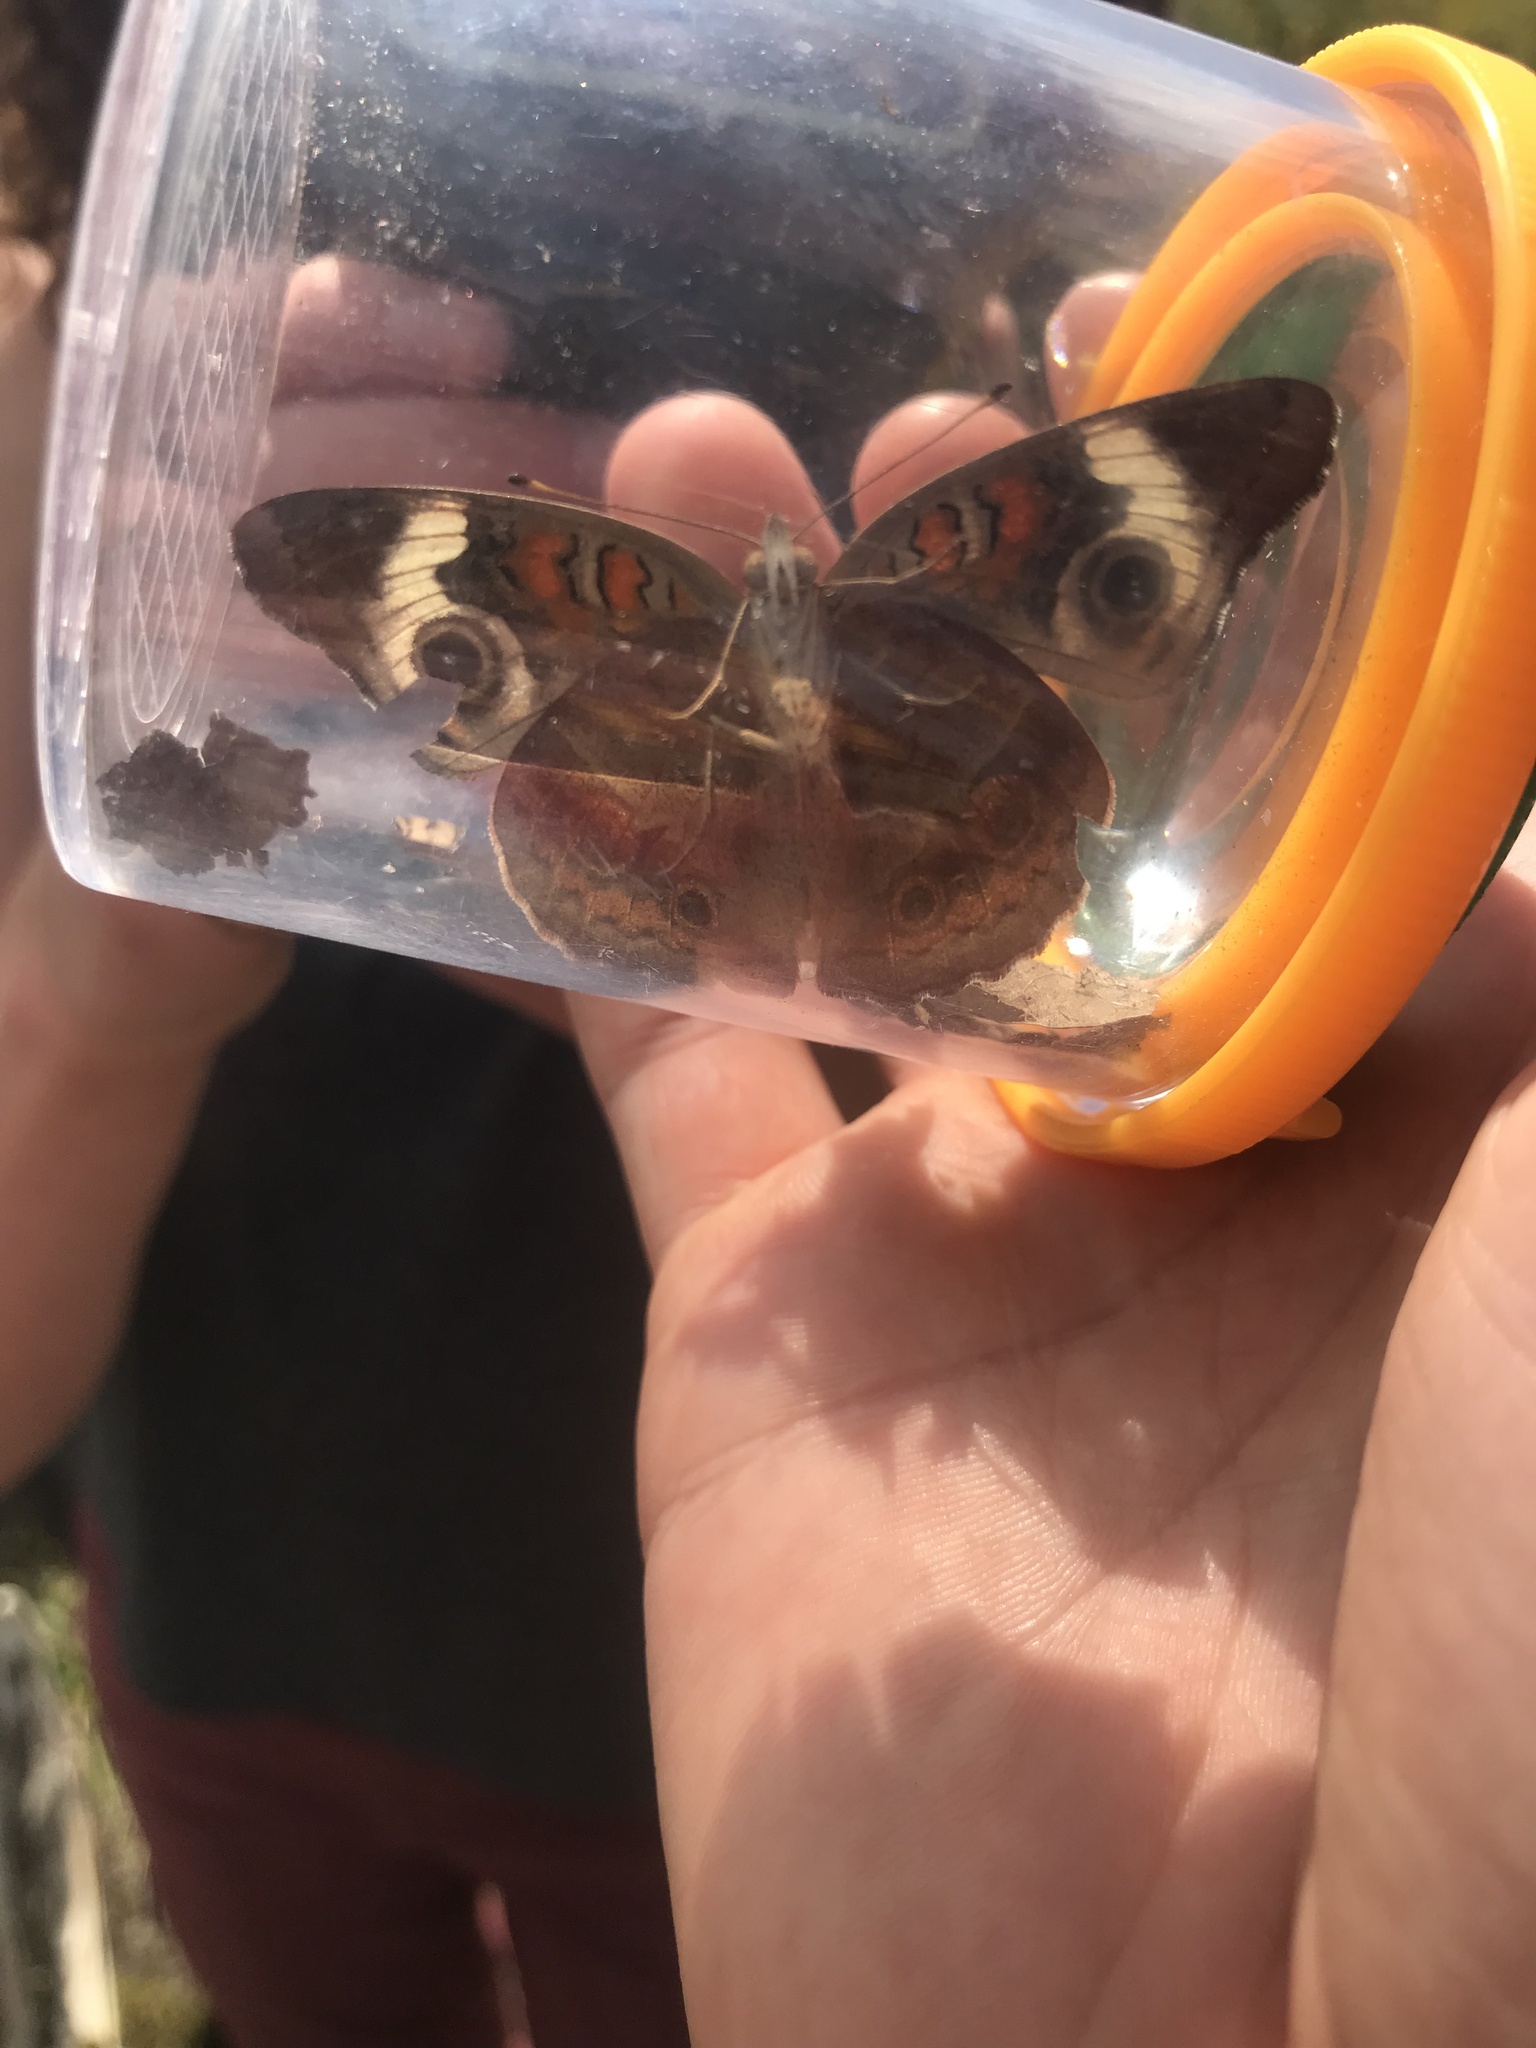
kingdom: Animalia
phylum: Arthropoda
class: Insecta
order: Lepidoptera
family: Nymphalidae
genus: Junonia
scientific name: Junonia coenia
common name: Common buckeye
